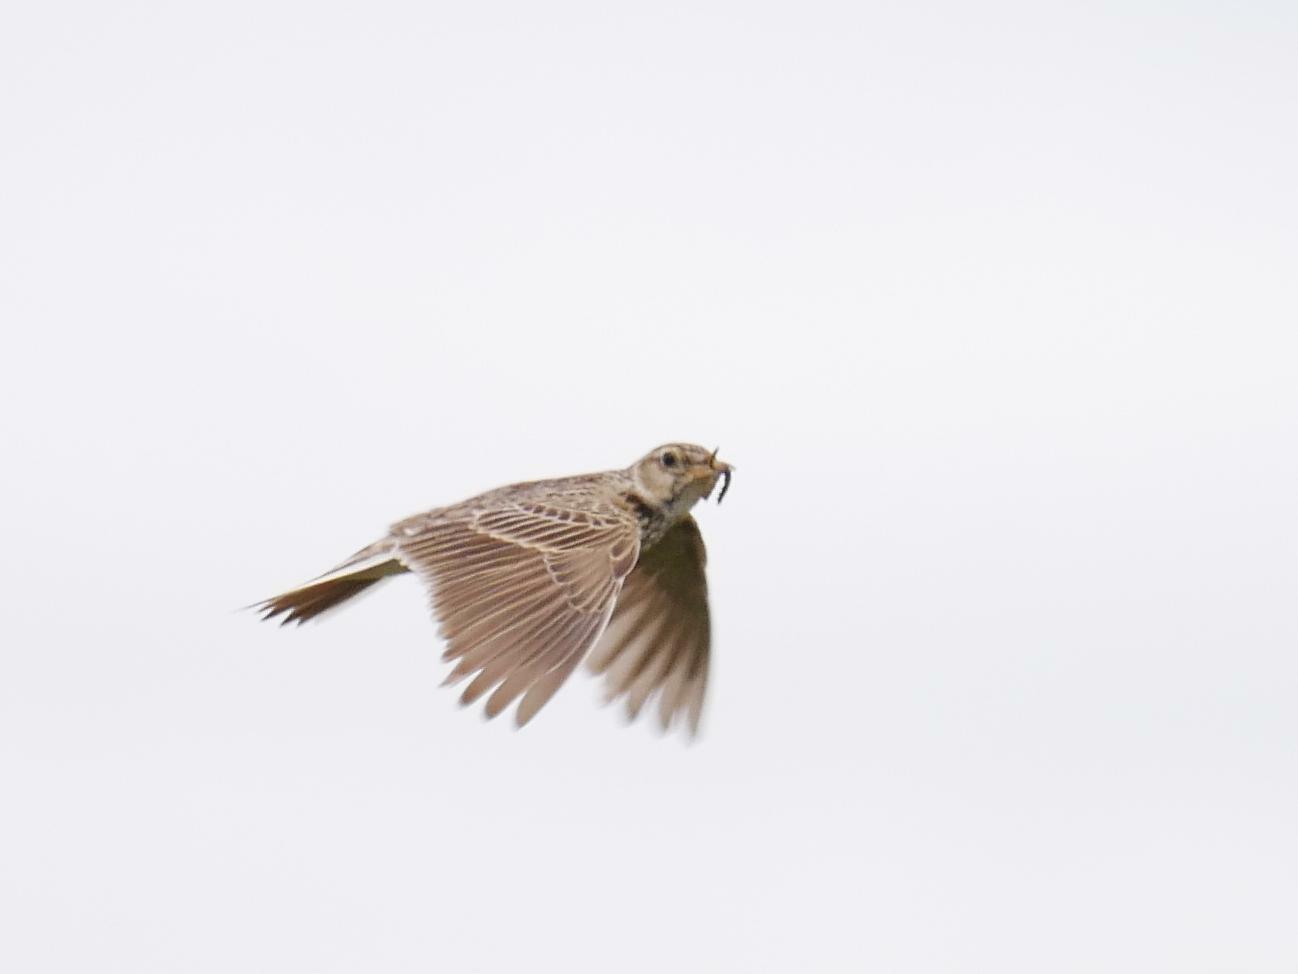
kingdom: Animalia
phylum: Chordata
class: Aves
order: Passeriformes
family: Alaudidae
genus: Alauda
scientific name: Alauda arvensis
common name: Eurasian skylark
